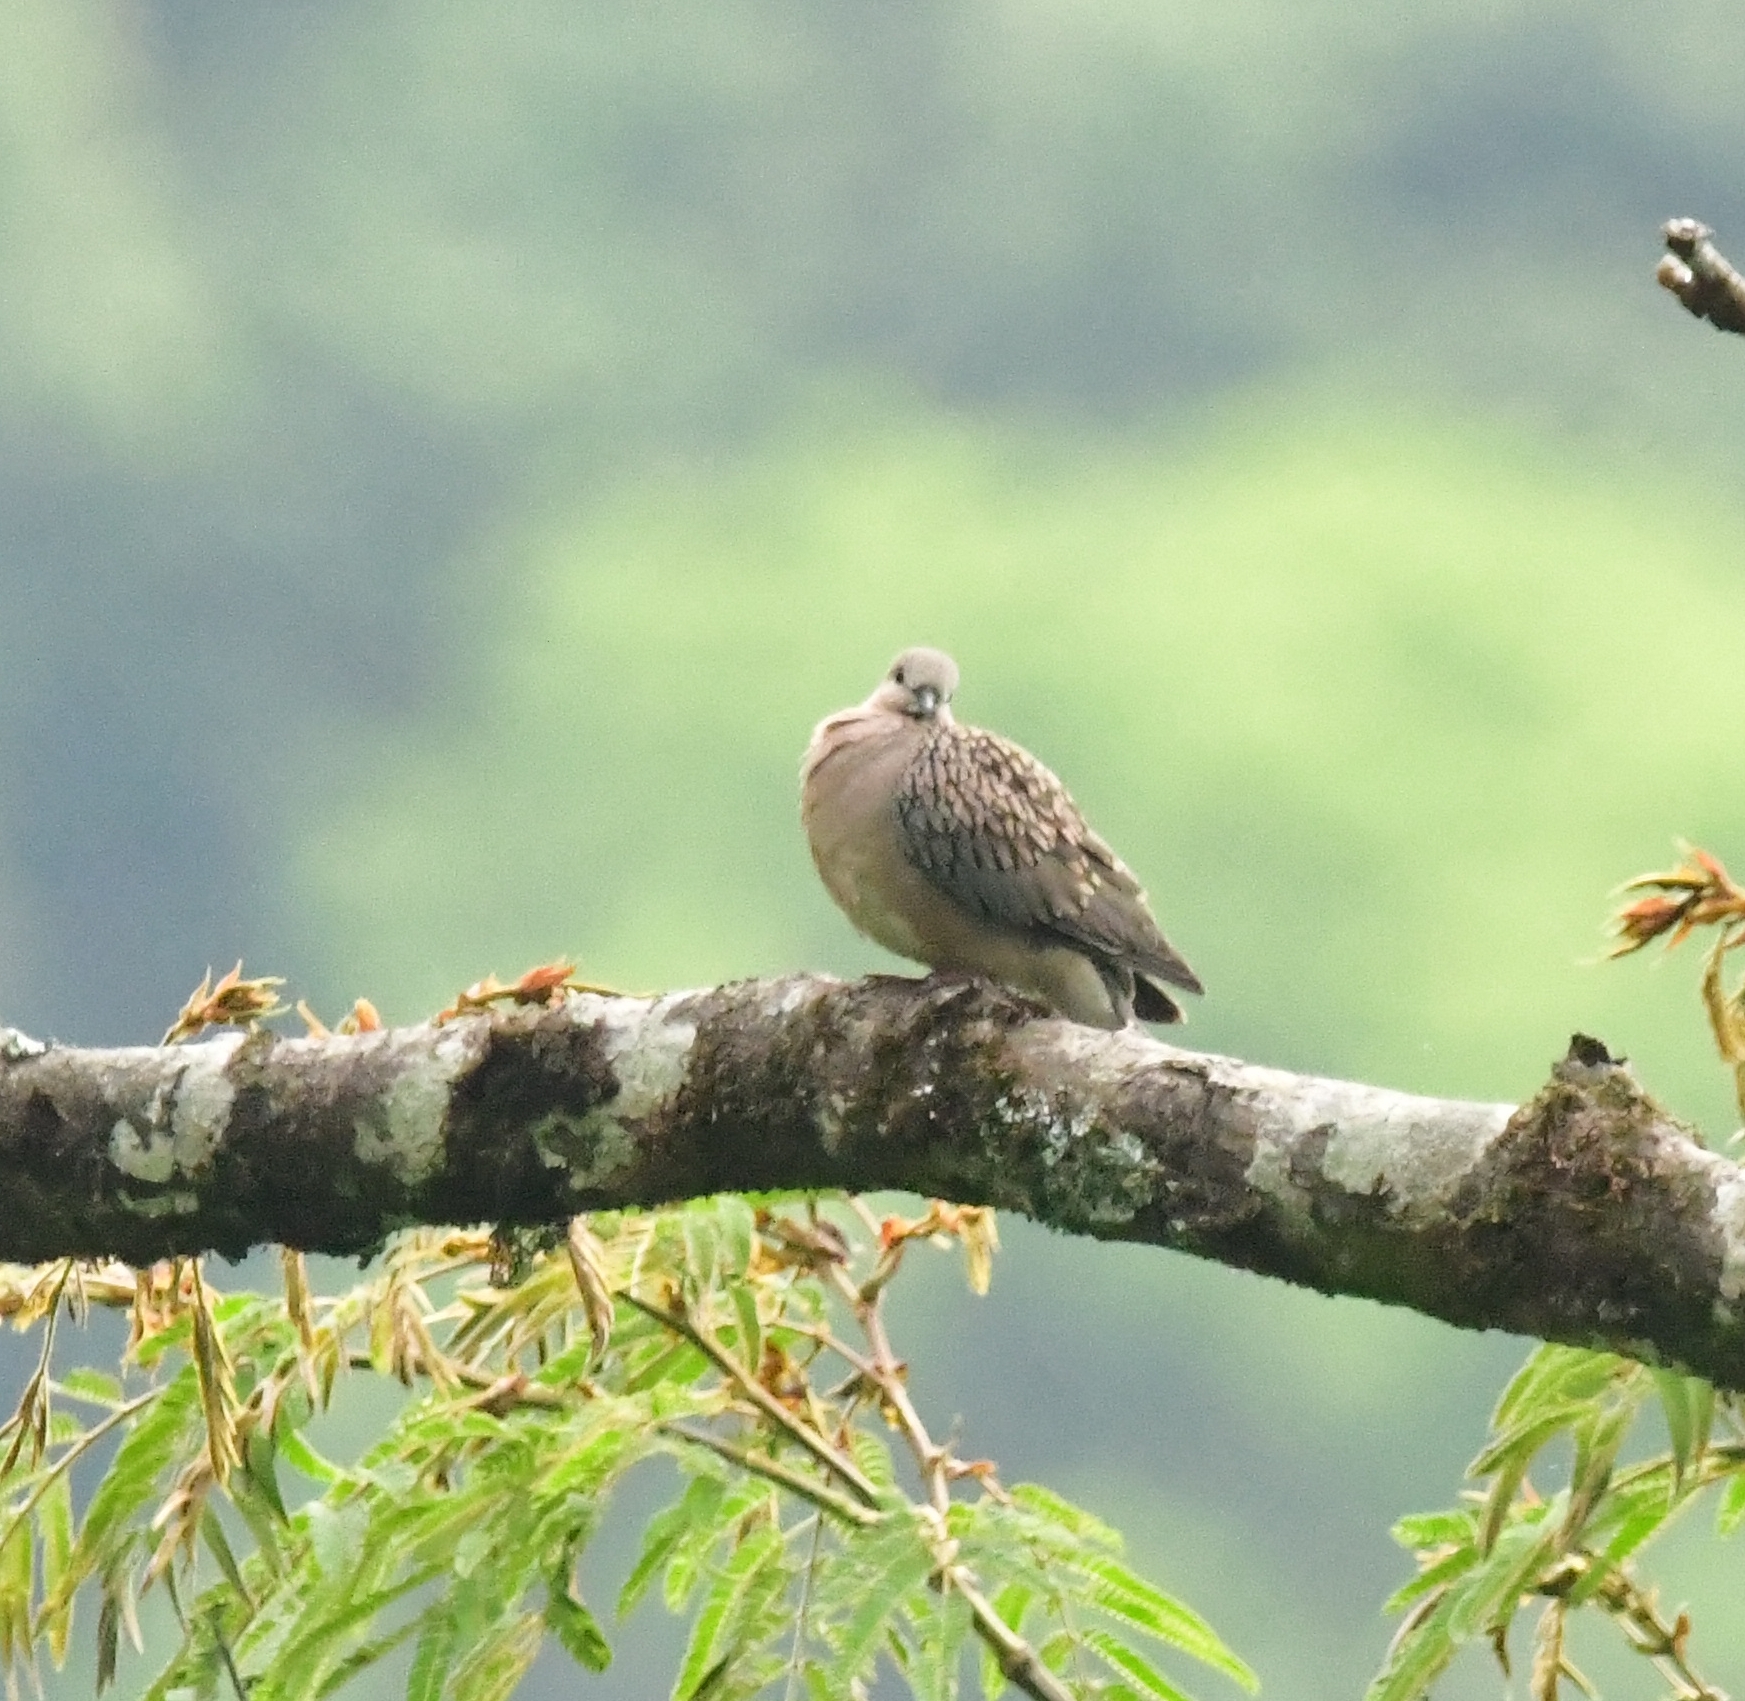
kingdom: Animalia
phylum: Chordata
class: Aves
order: Columbiformes
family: Columbidae
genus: Spilopelia
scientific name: Spilopelia chinensis
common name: Spotted dove
